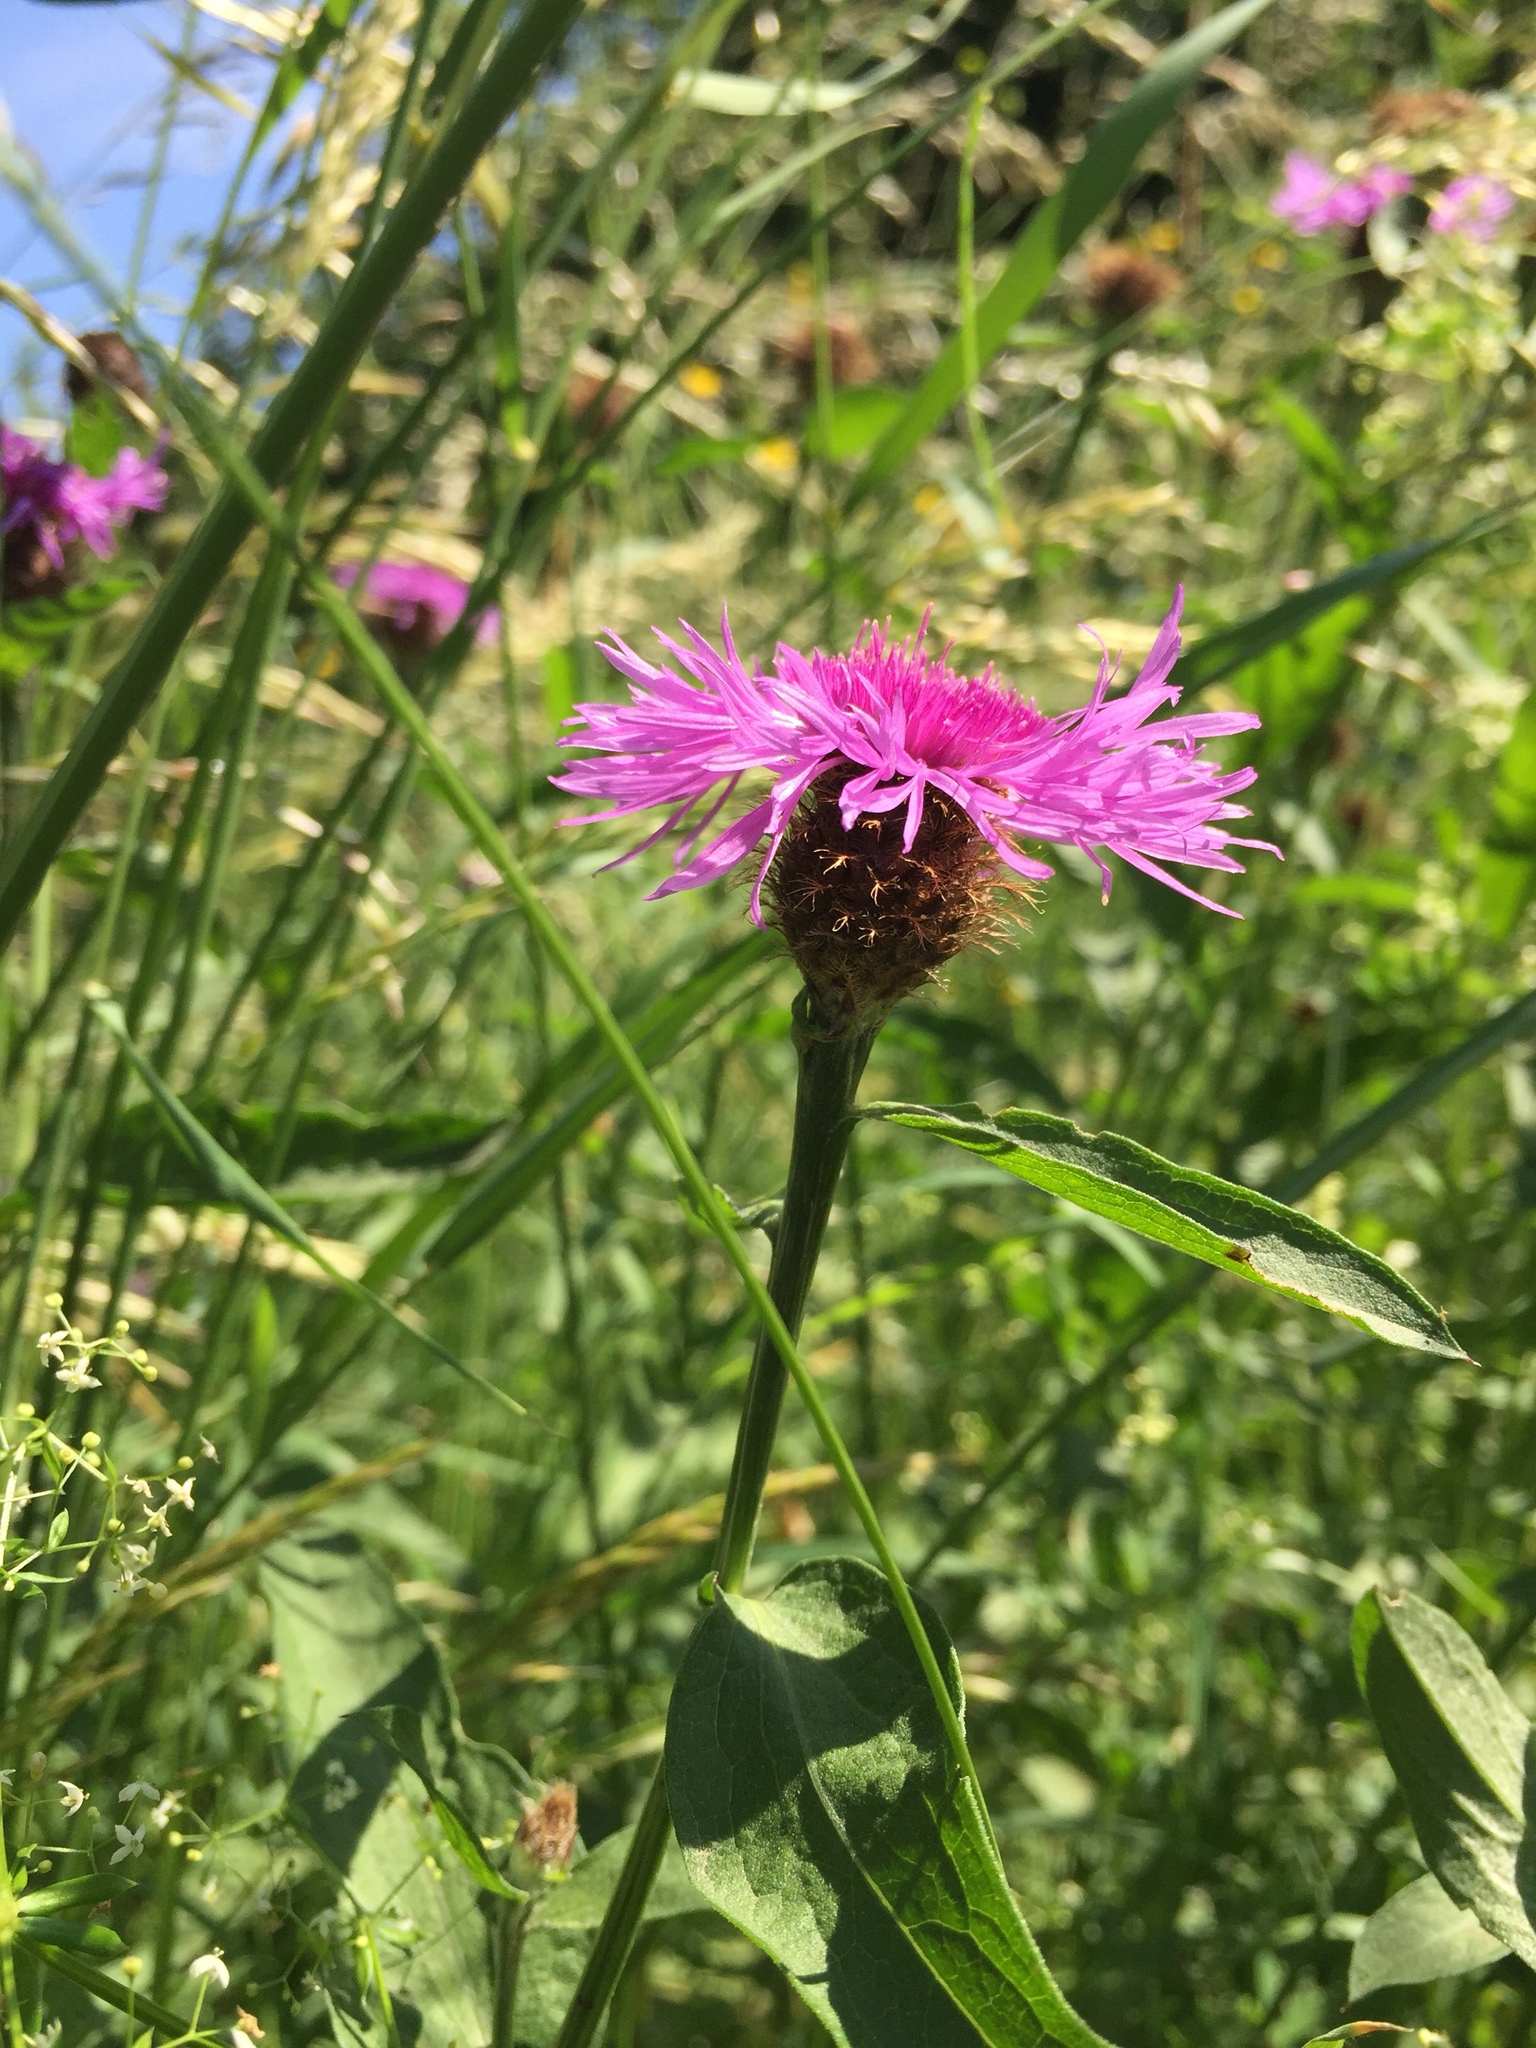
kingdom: Plantae
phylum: Tracheophyta
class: Magnoliopsida
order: Asterales
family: Asteraceae
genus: Centaurea
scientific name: Centaurea indurata
